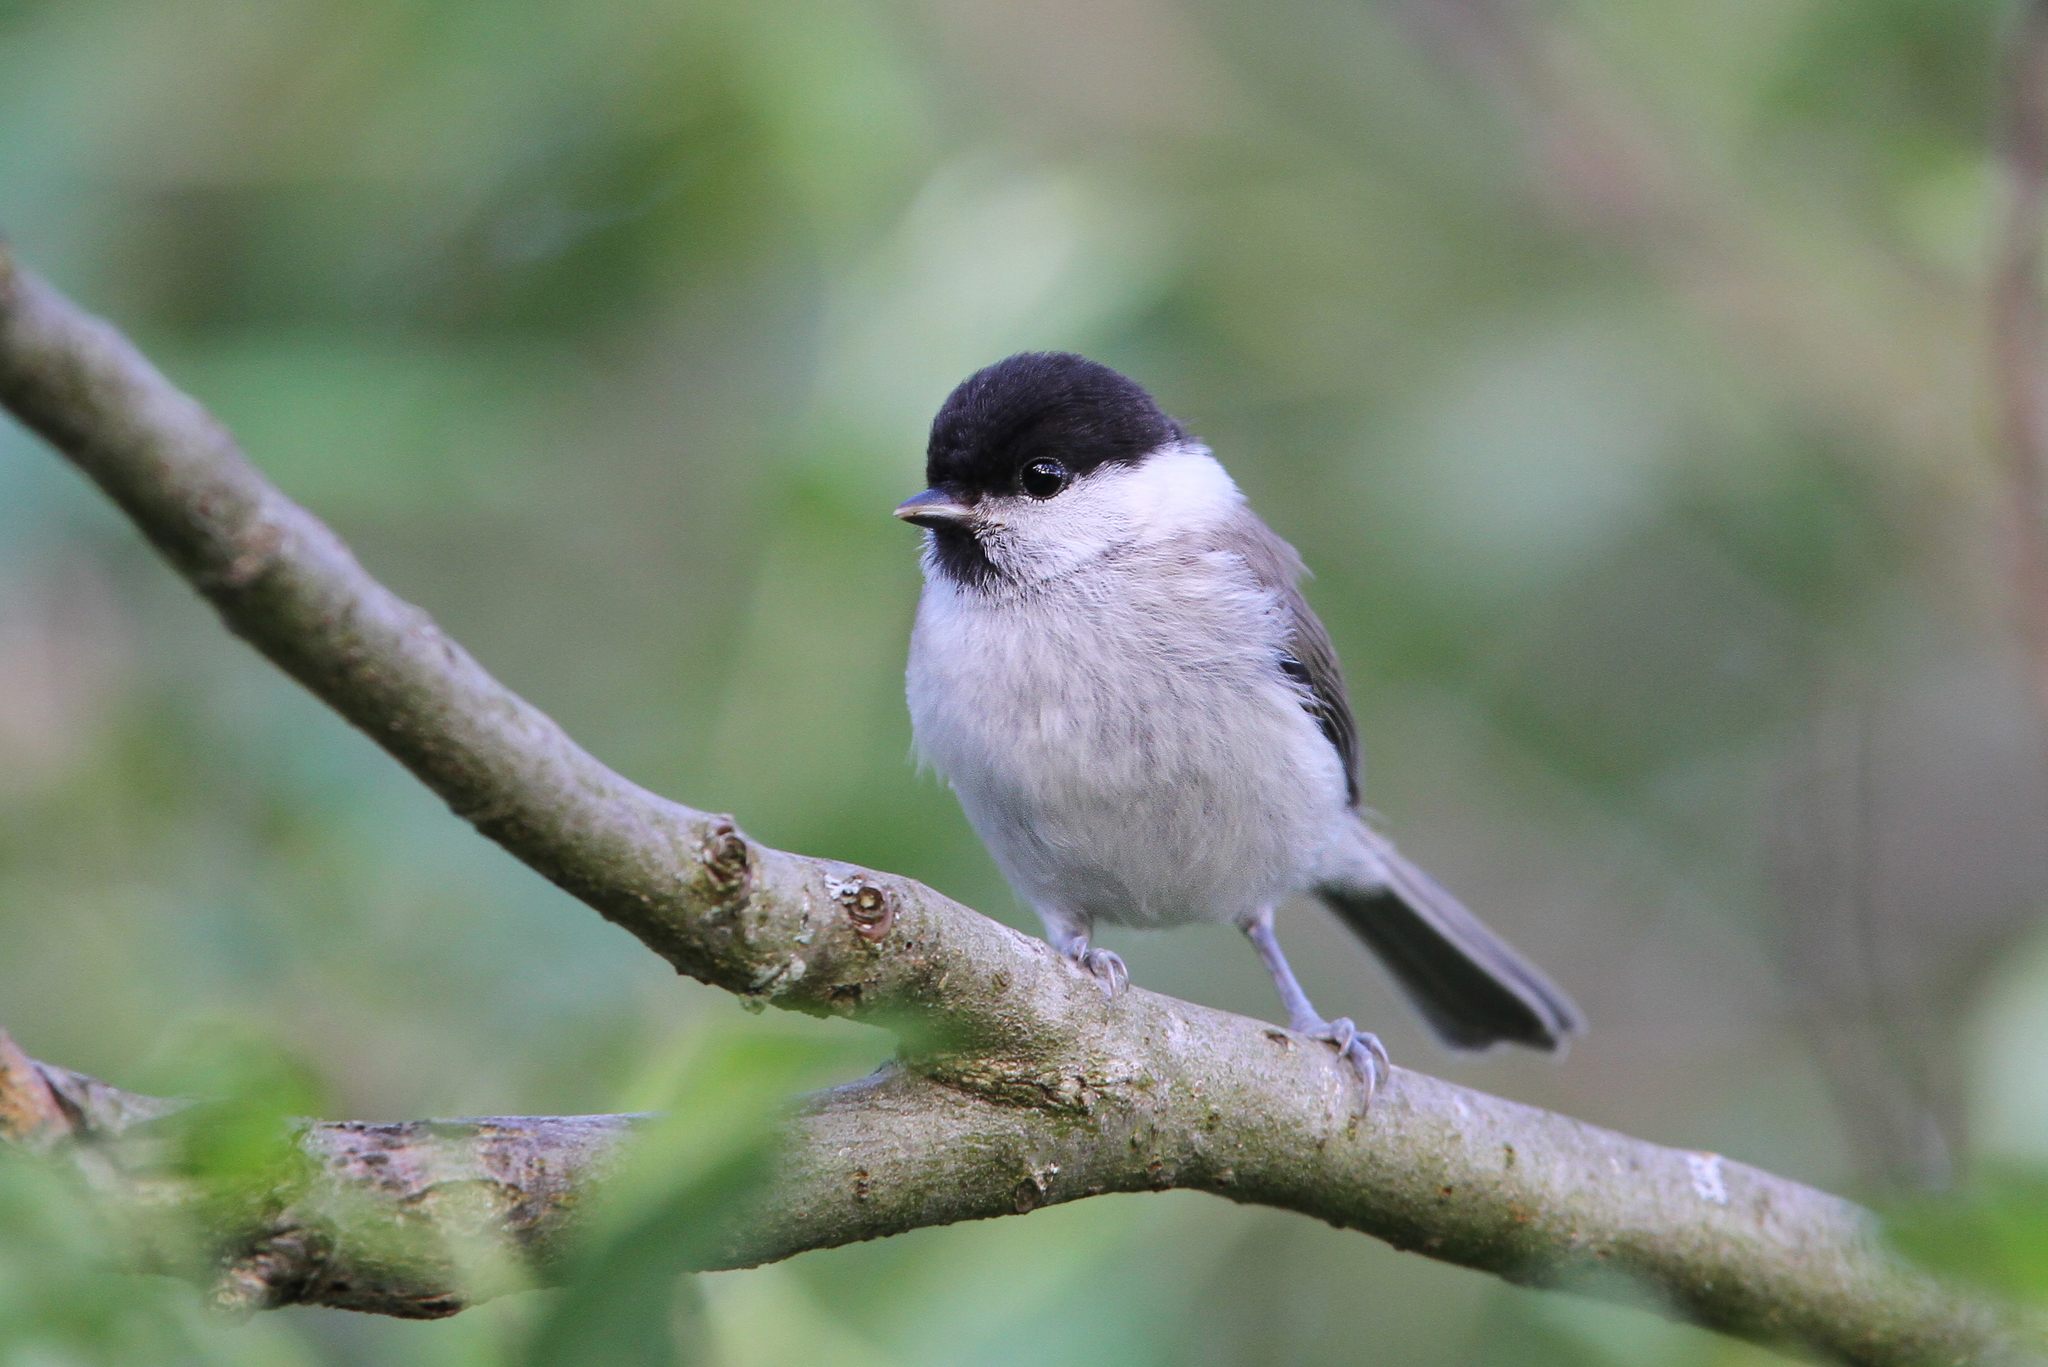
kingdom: Animalia
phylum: Chordata
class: Aves
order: Passeriformes
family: Paridae
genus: Poecile
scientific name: Poecile palustris
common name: Marsh tit
